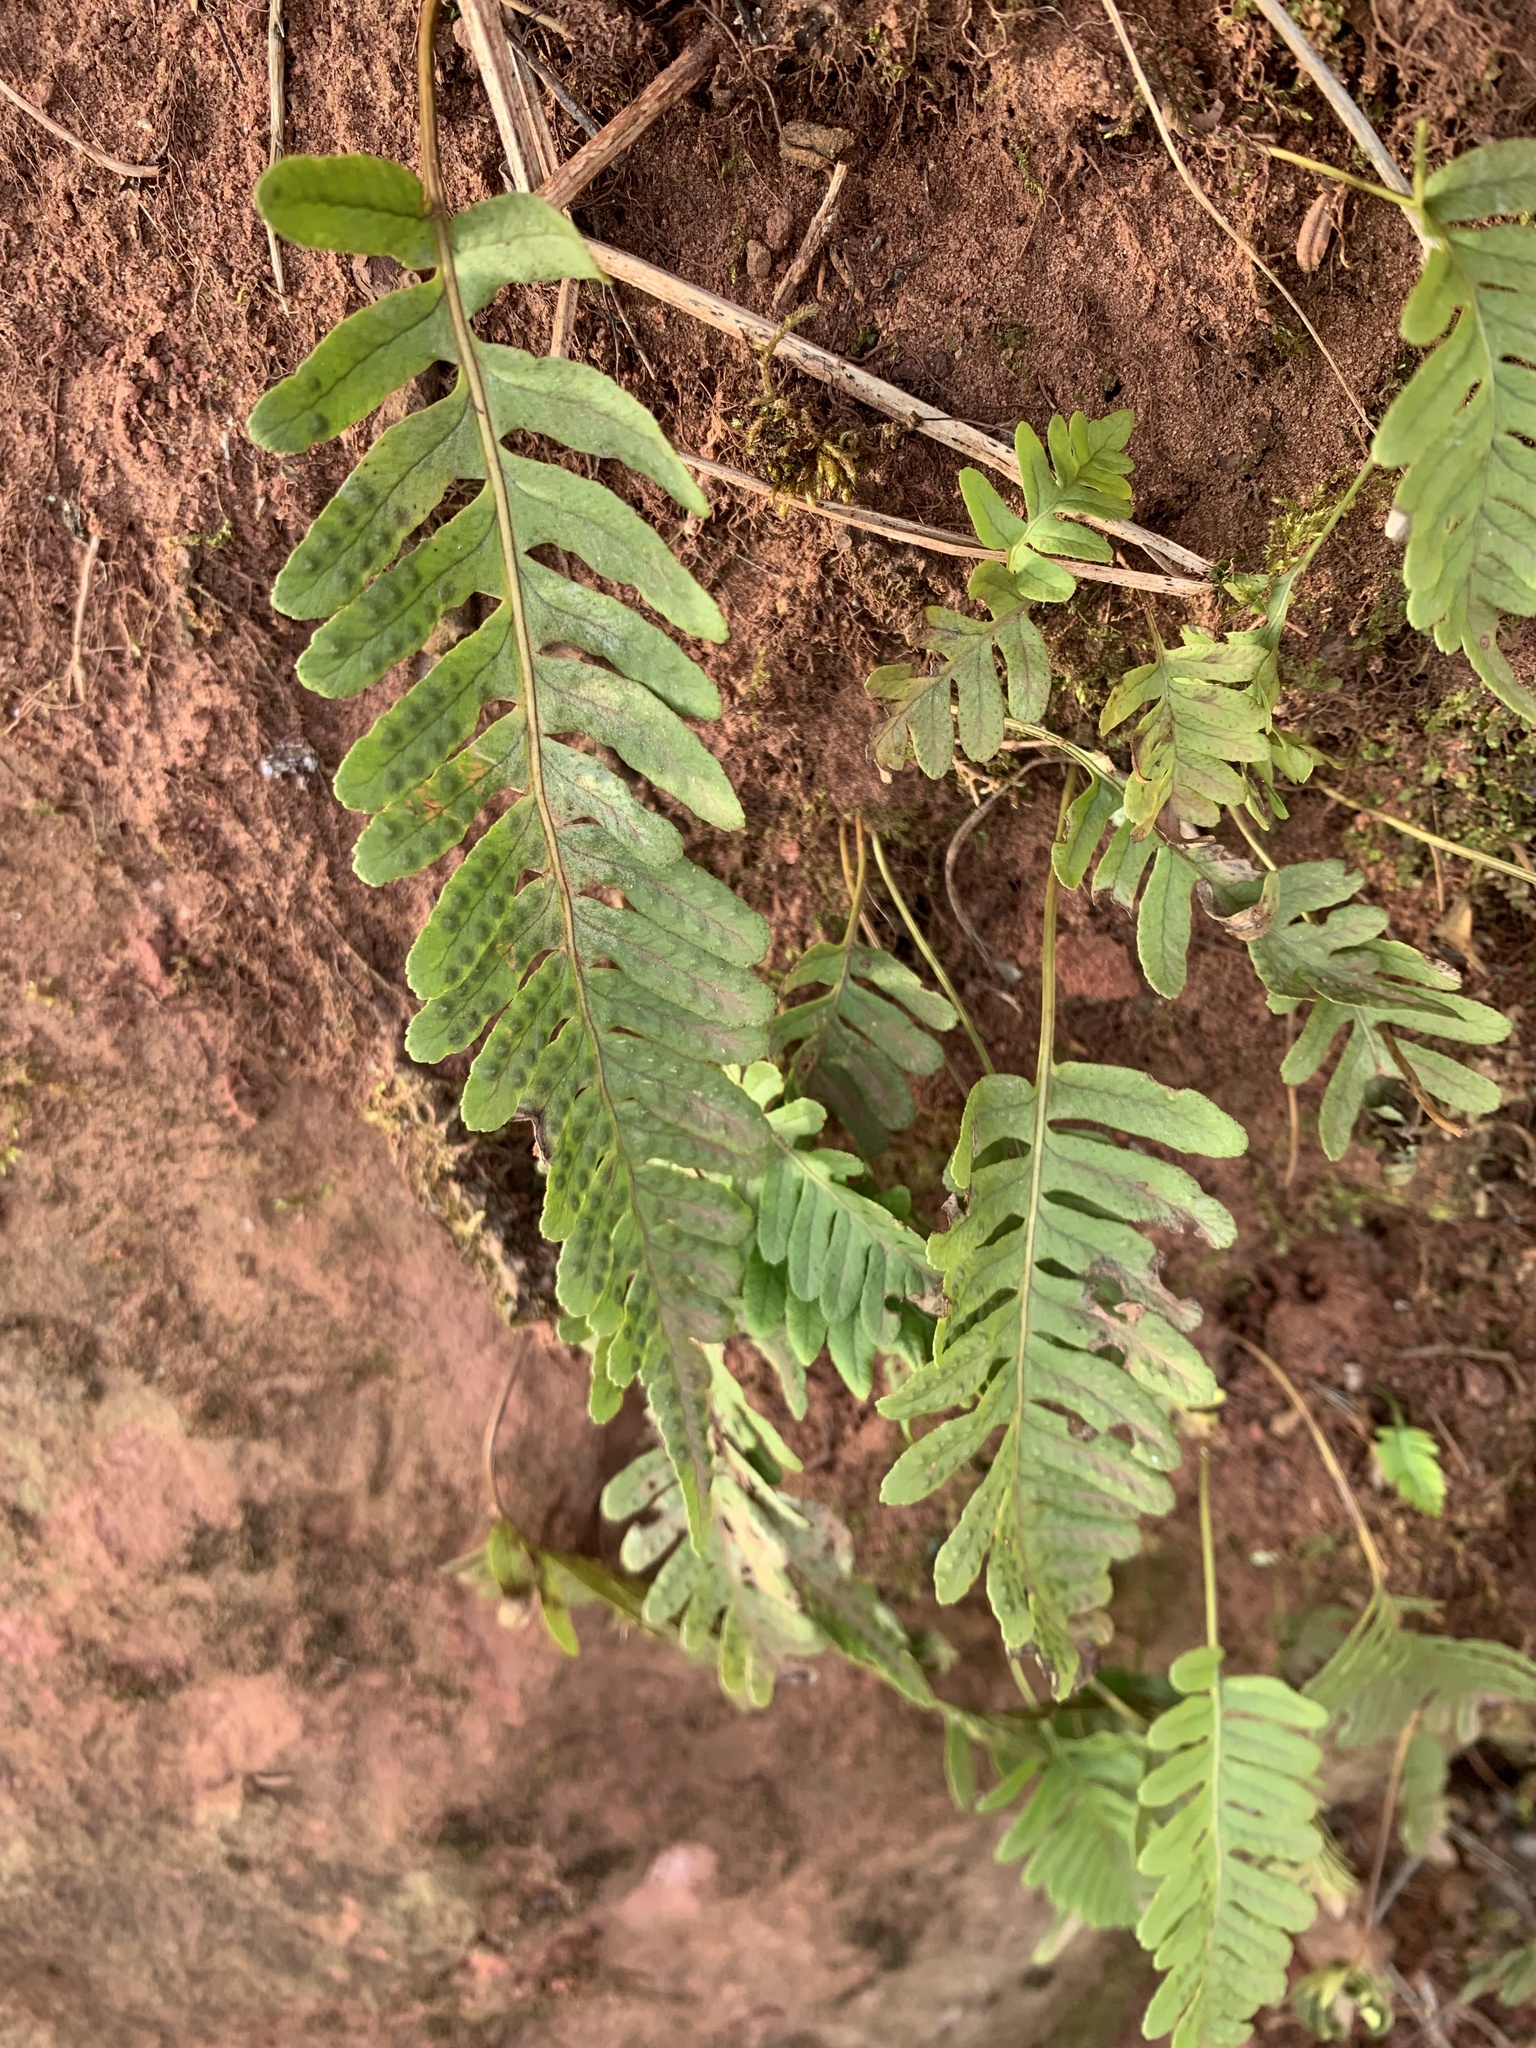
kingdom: Plantae
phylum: Tracheophyta
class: Polypodiopsida
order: Polypodiales
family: Polypodiaceae
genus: Polypodium
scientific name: Polypodium vulgare
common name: Common polypody
